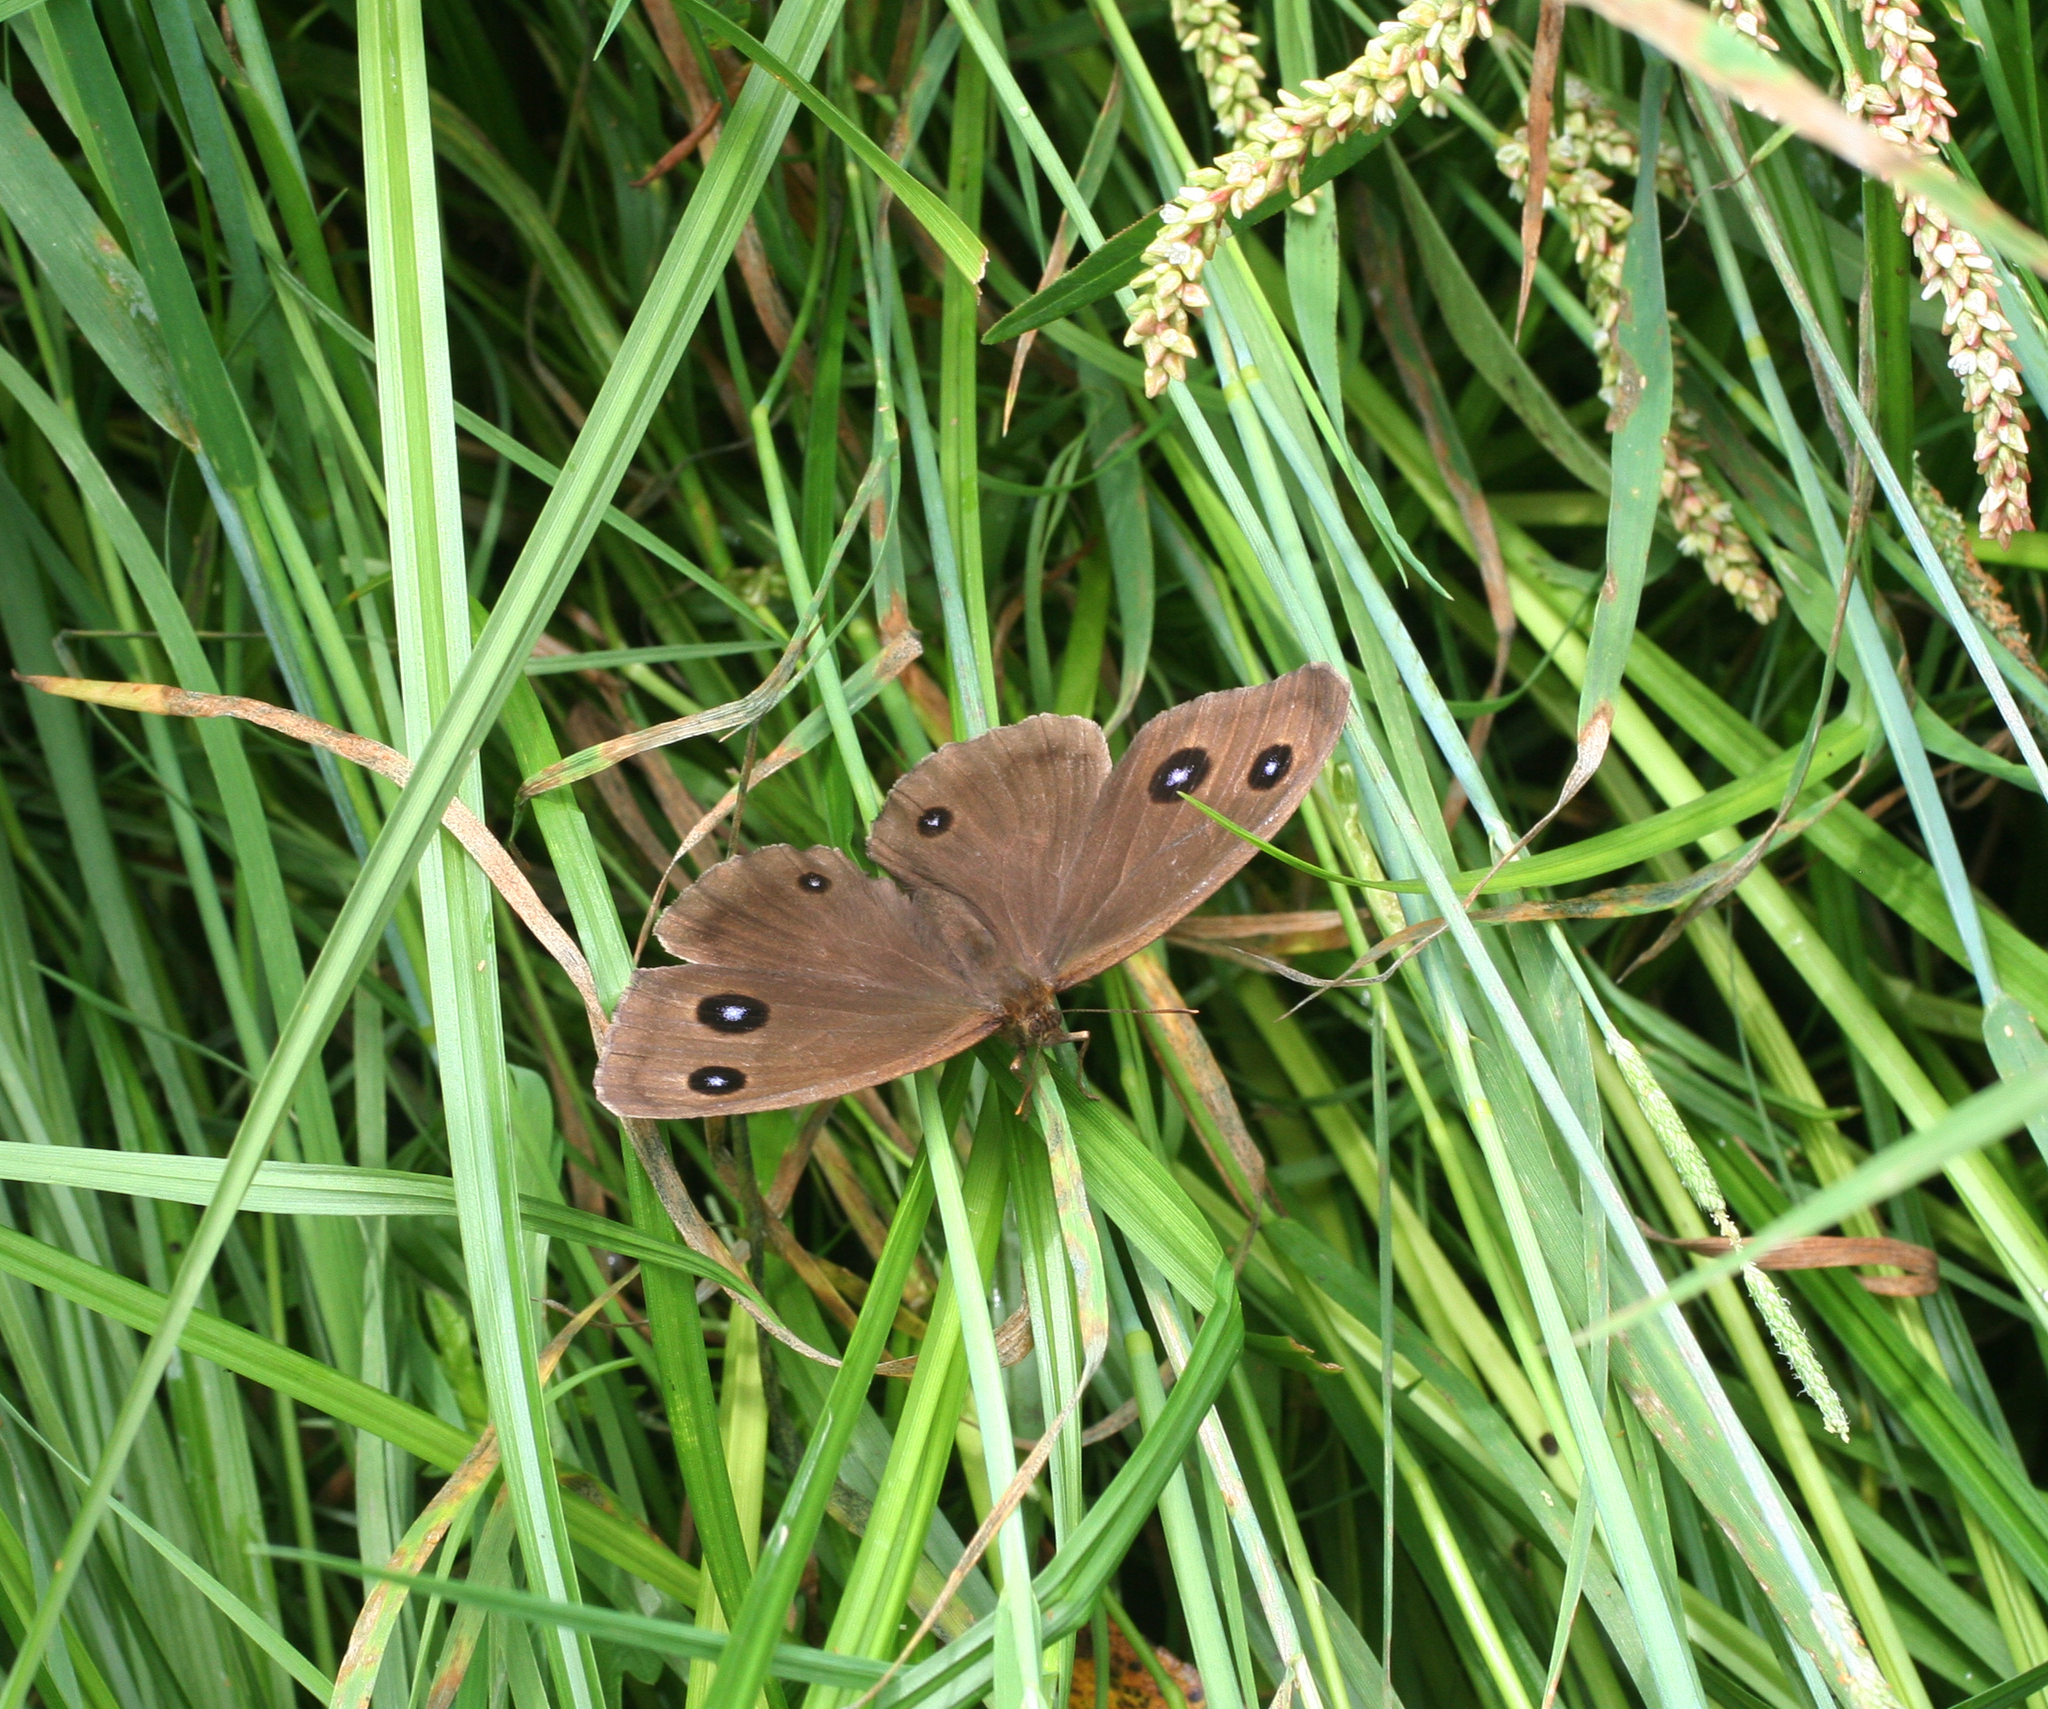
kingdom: Animalia
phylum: Arthropoda
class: Insecta
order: Lepidoptera
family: Nymphalidae
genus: Minois
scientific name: Minois dryas
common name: Dryad
